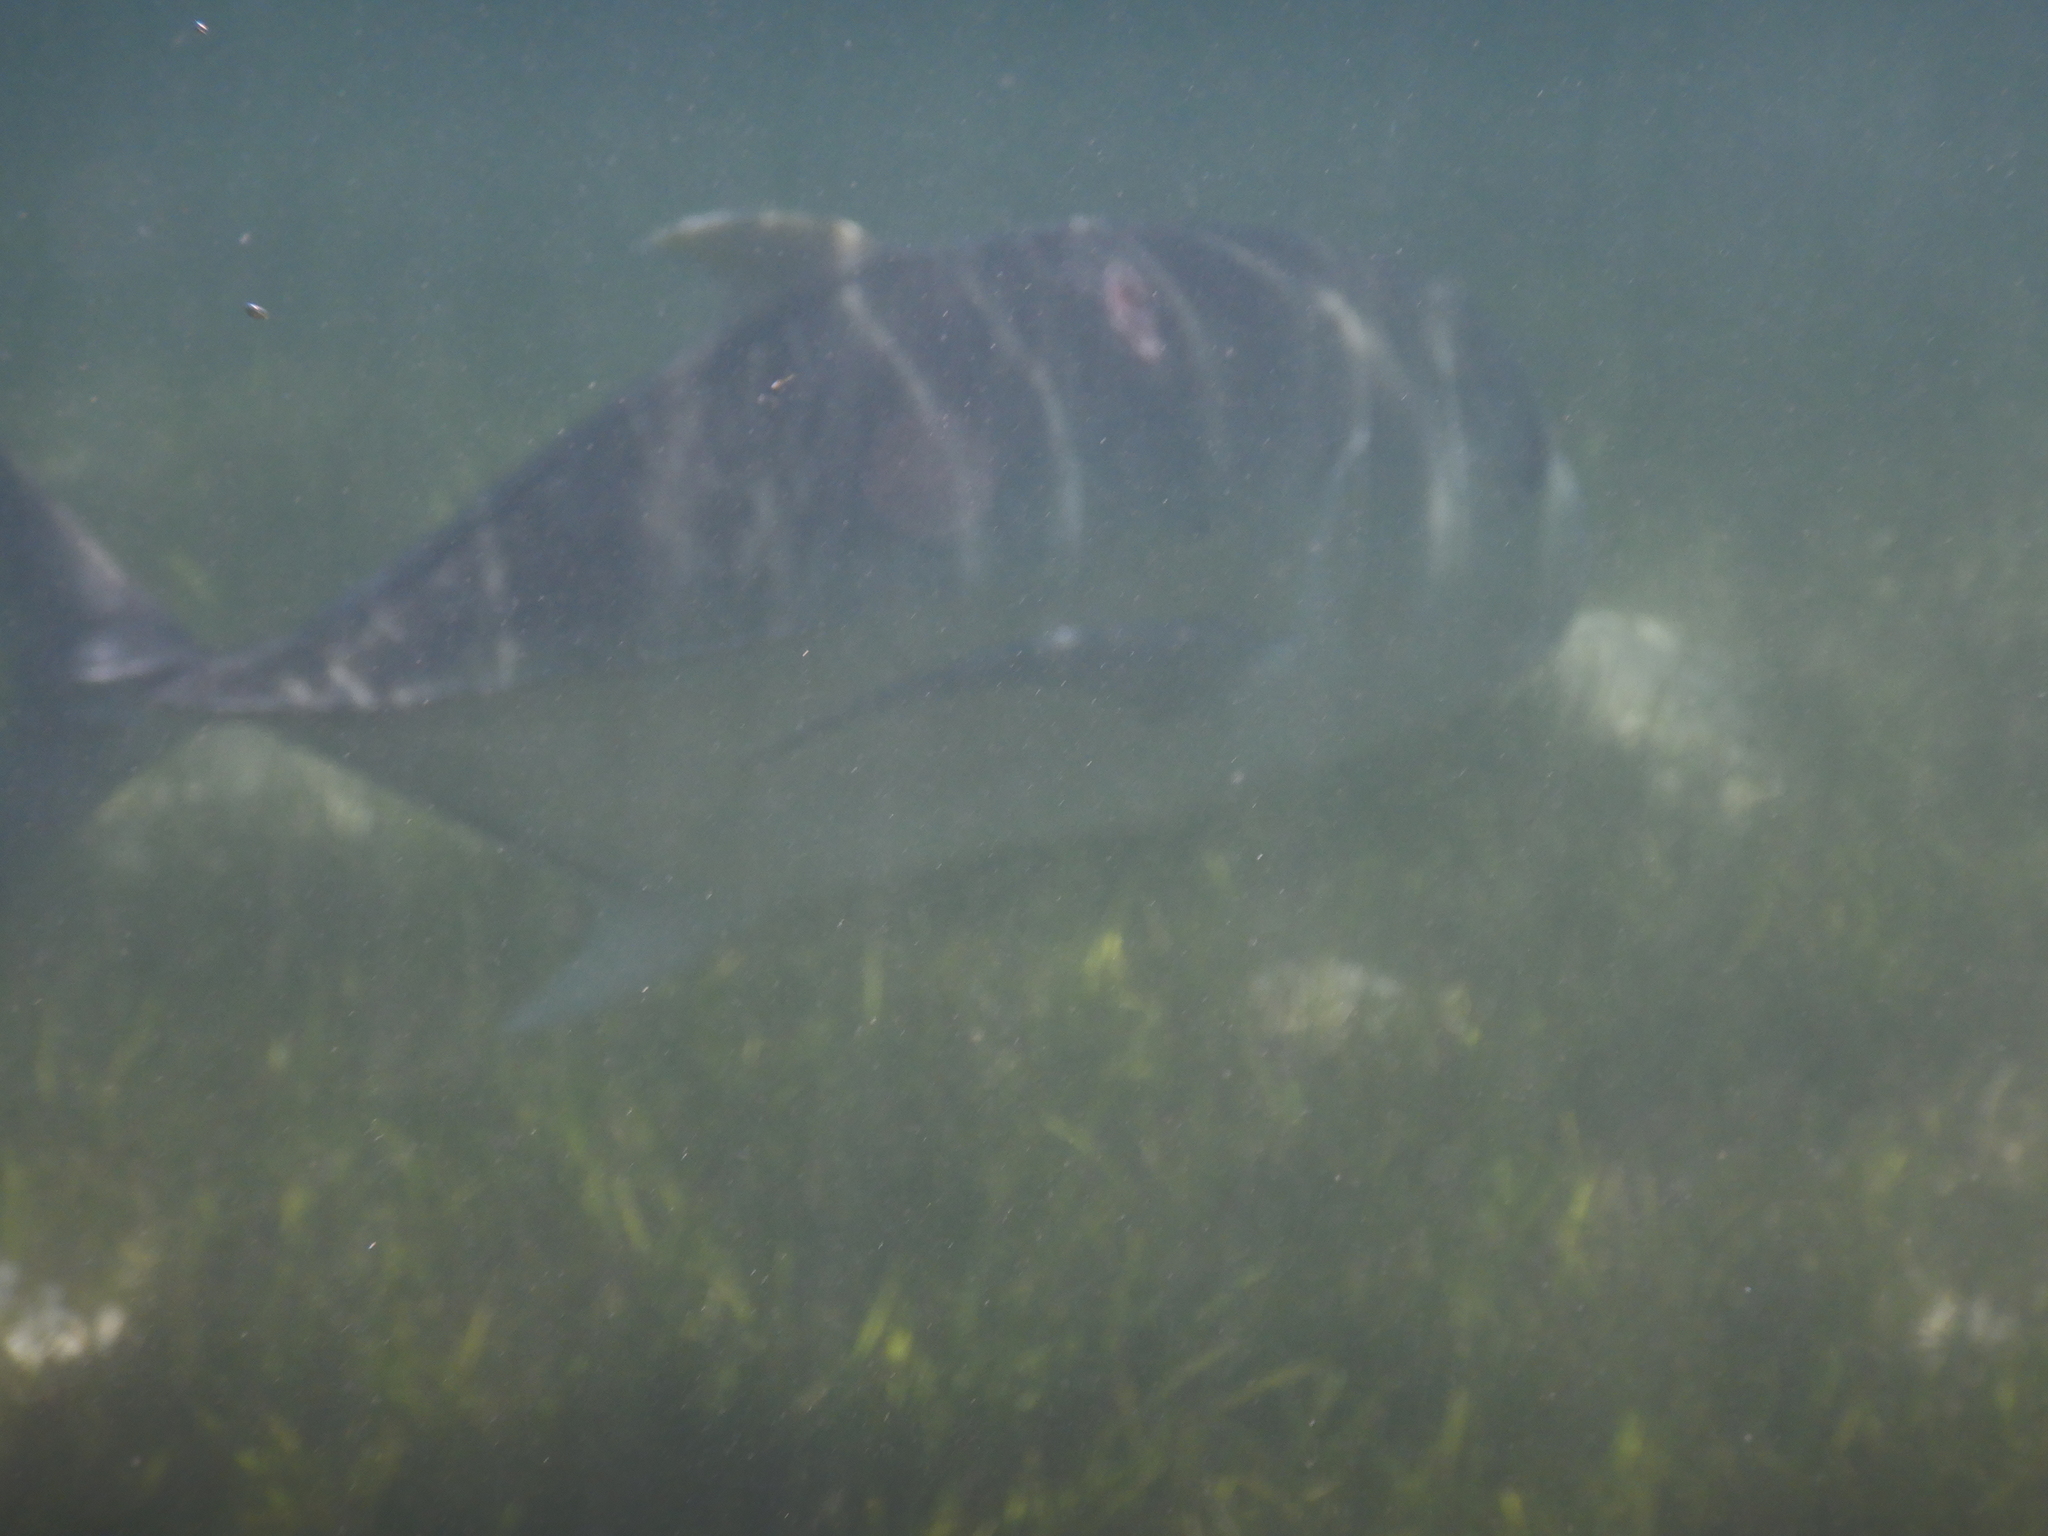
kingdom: Animalia
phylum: Chordata
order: Perciformes
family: Carangidae
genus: Caranx
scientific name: Caranx ignobilis
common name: Giant trevally
